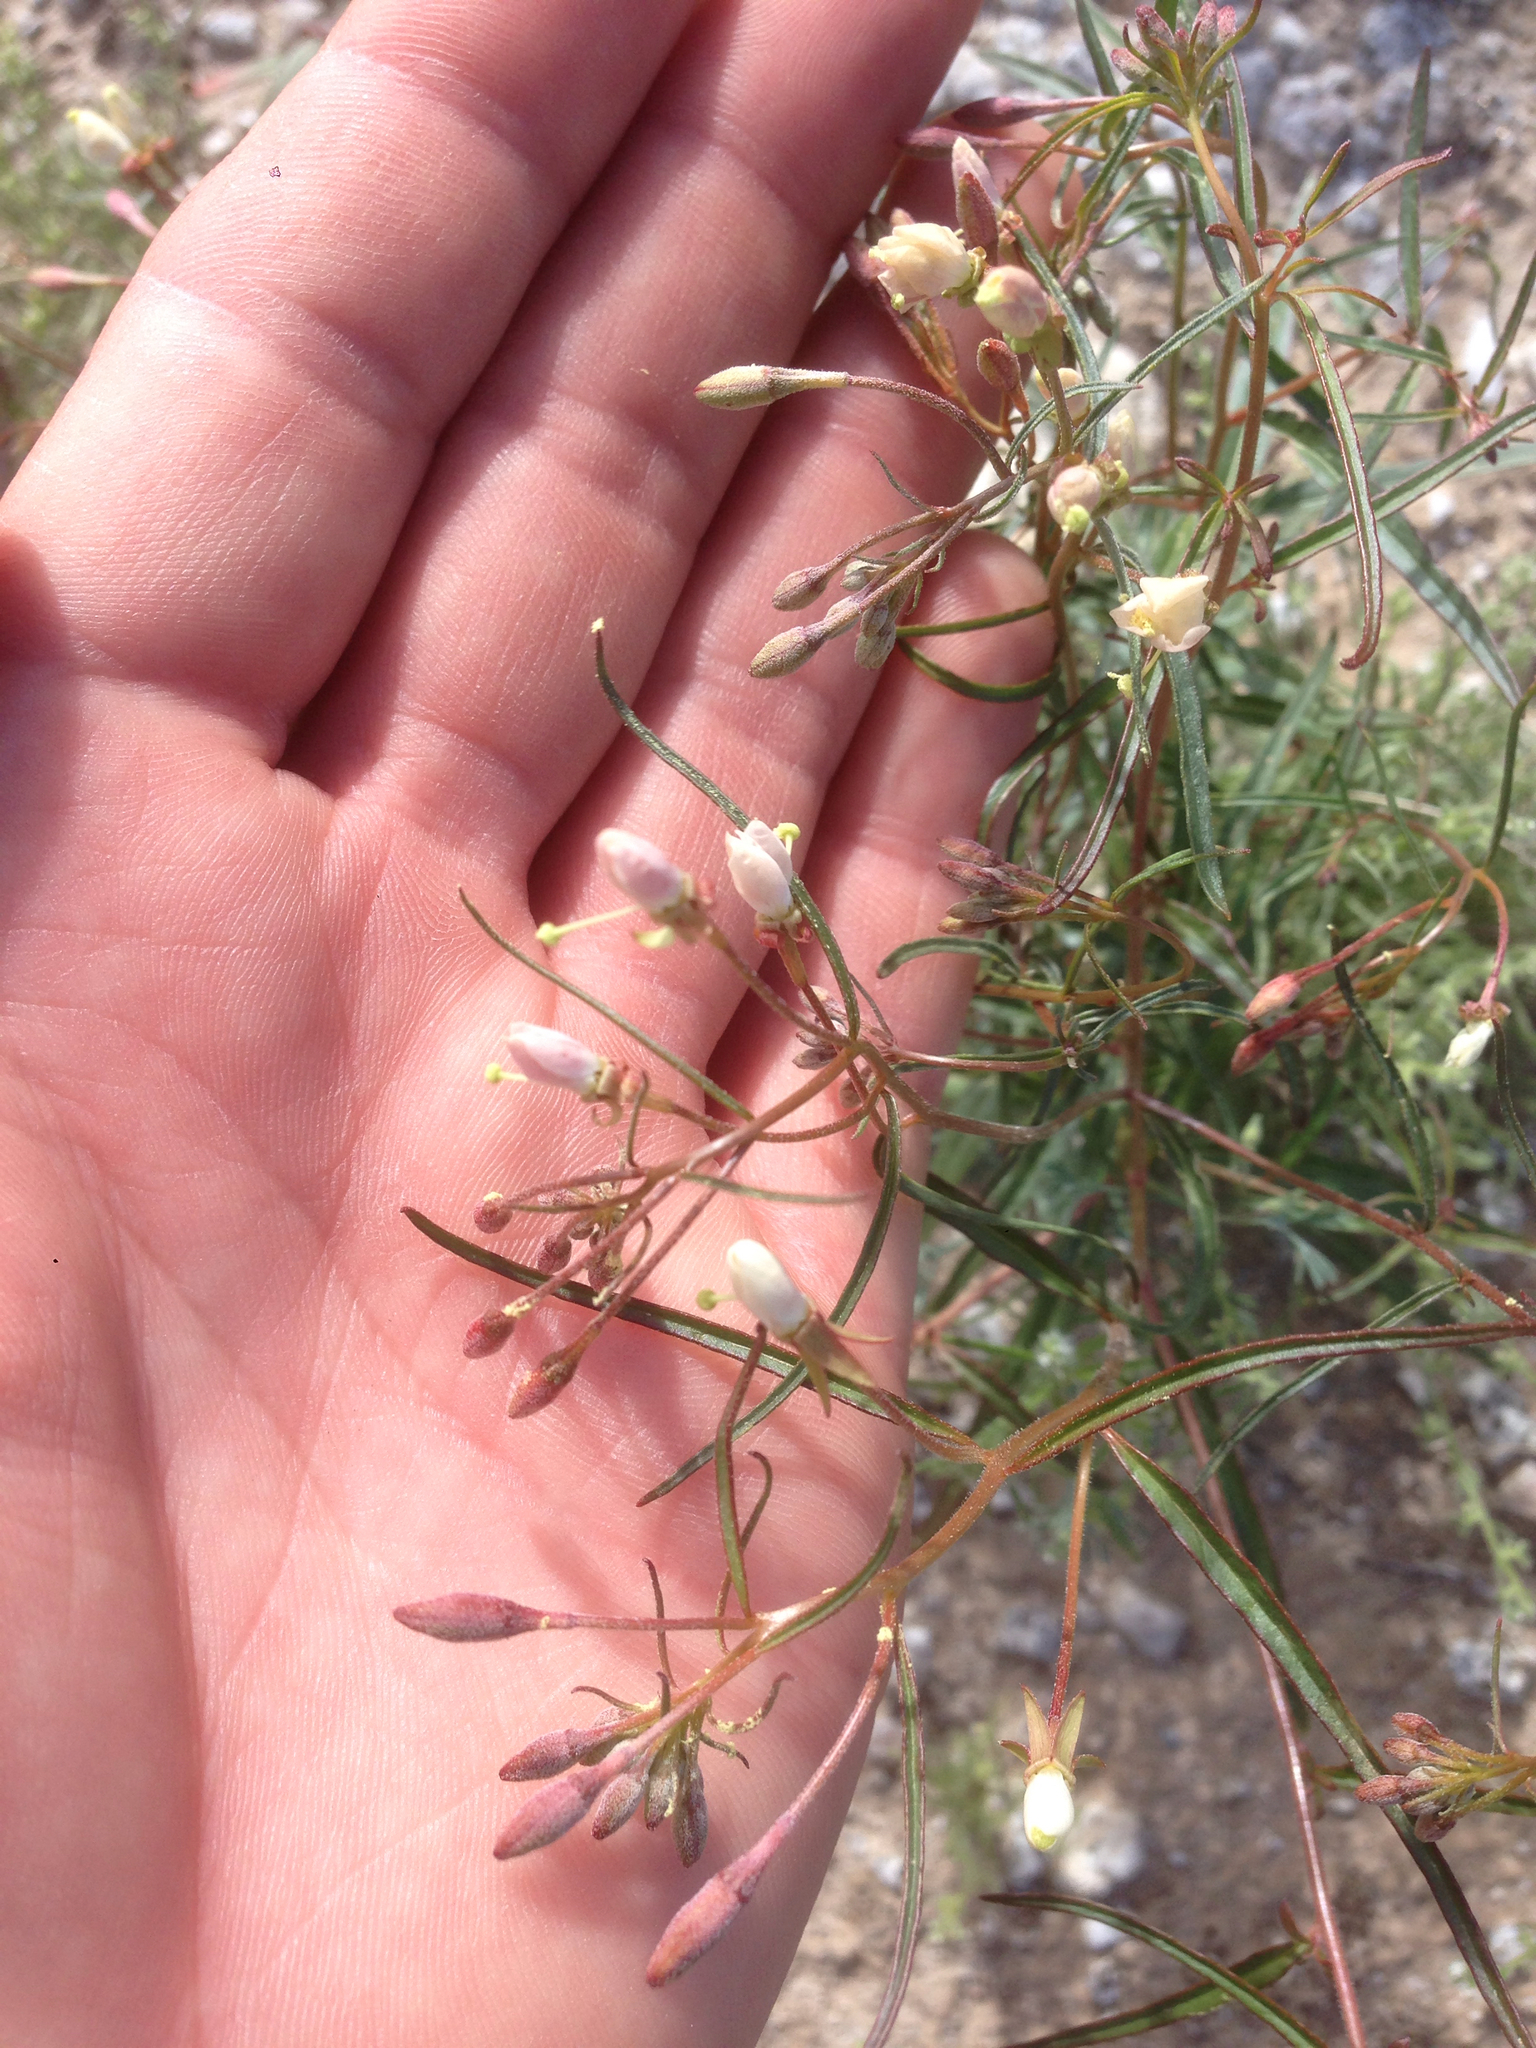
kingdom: Plantae
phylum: Tracheophyta
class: Magnoliopsida
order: Myrtales
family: Onagraceae
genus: Eremothera
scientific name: Eremothera refracta
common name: Narrowleaf suncup
